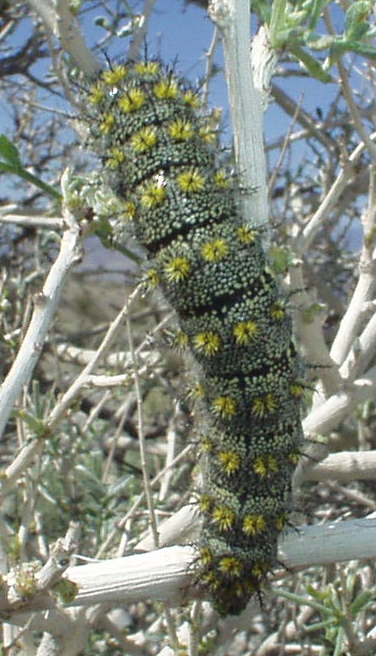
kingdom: Animalia
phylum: Arthropoda
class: Insecta
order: Lepidoptera
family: Saturniidae
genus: Hemileuca
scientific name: Hemileuca burnsi
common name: Burns' buckmoth
